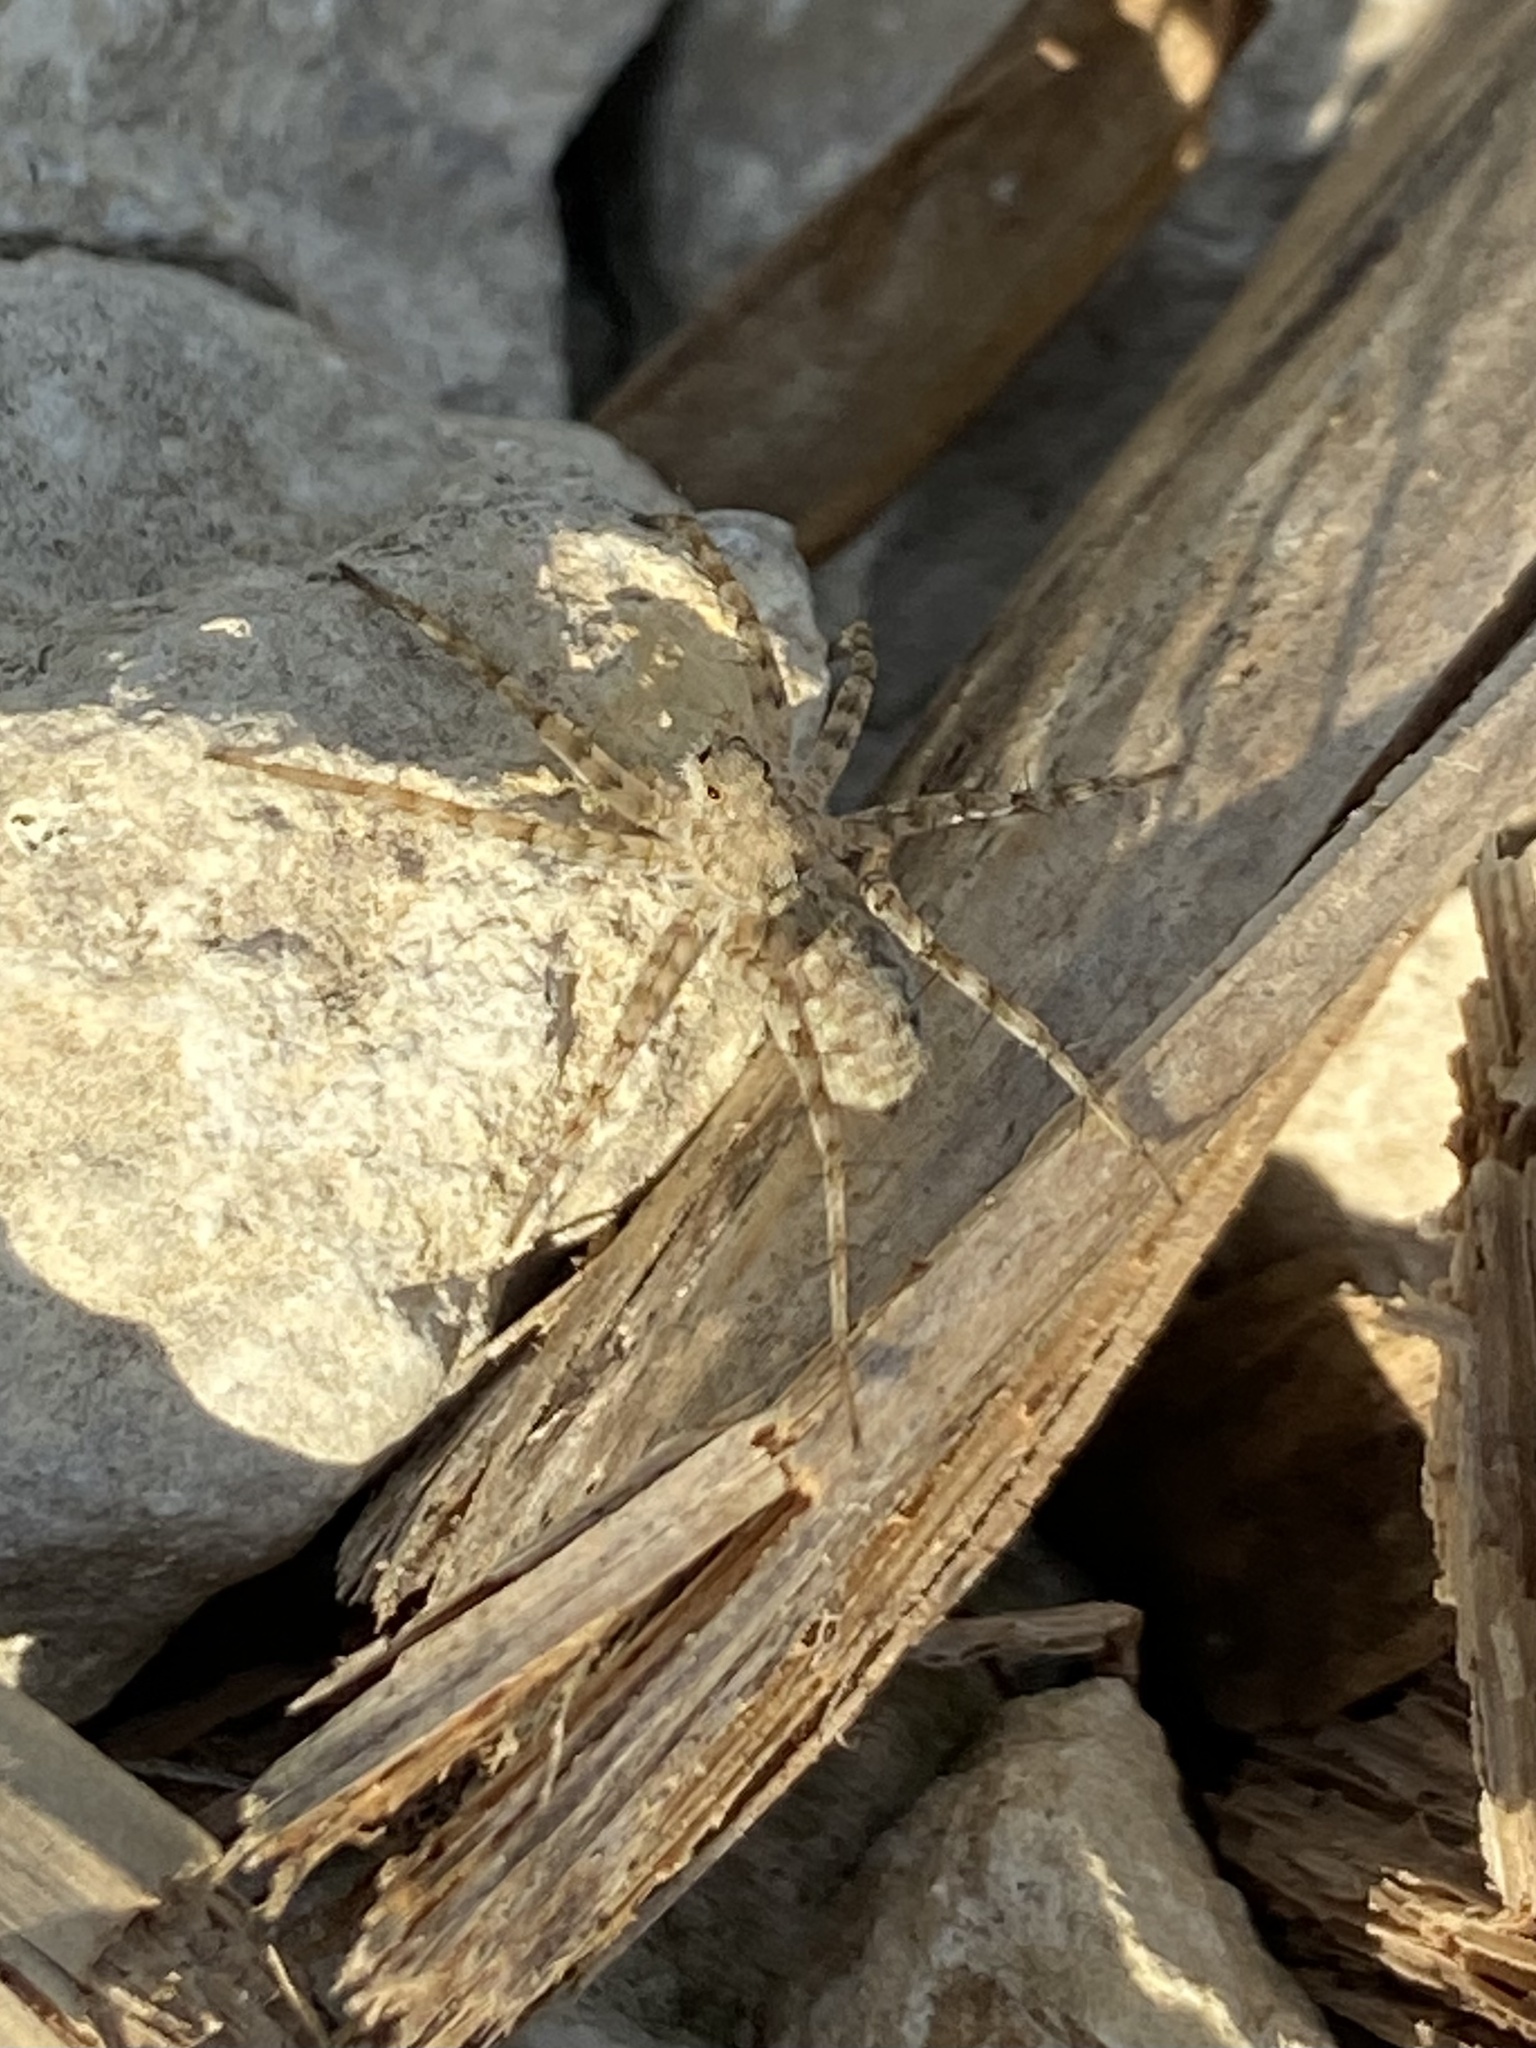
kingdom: Animalia
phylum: Arthropoda
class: Arachnida
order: Araneae
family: Lycosidae
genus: Pardosa
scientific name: Pardosa mercurialis
